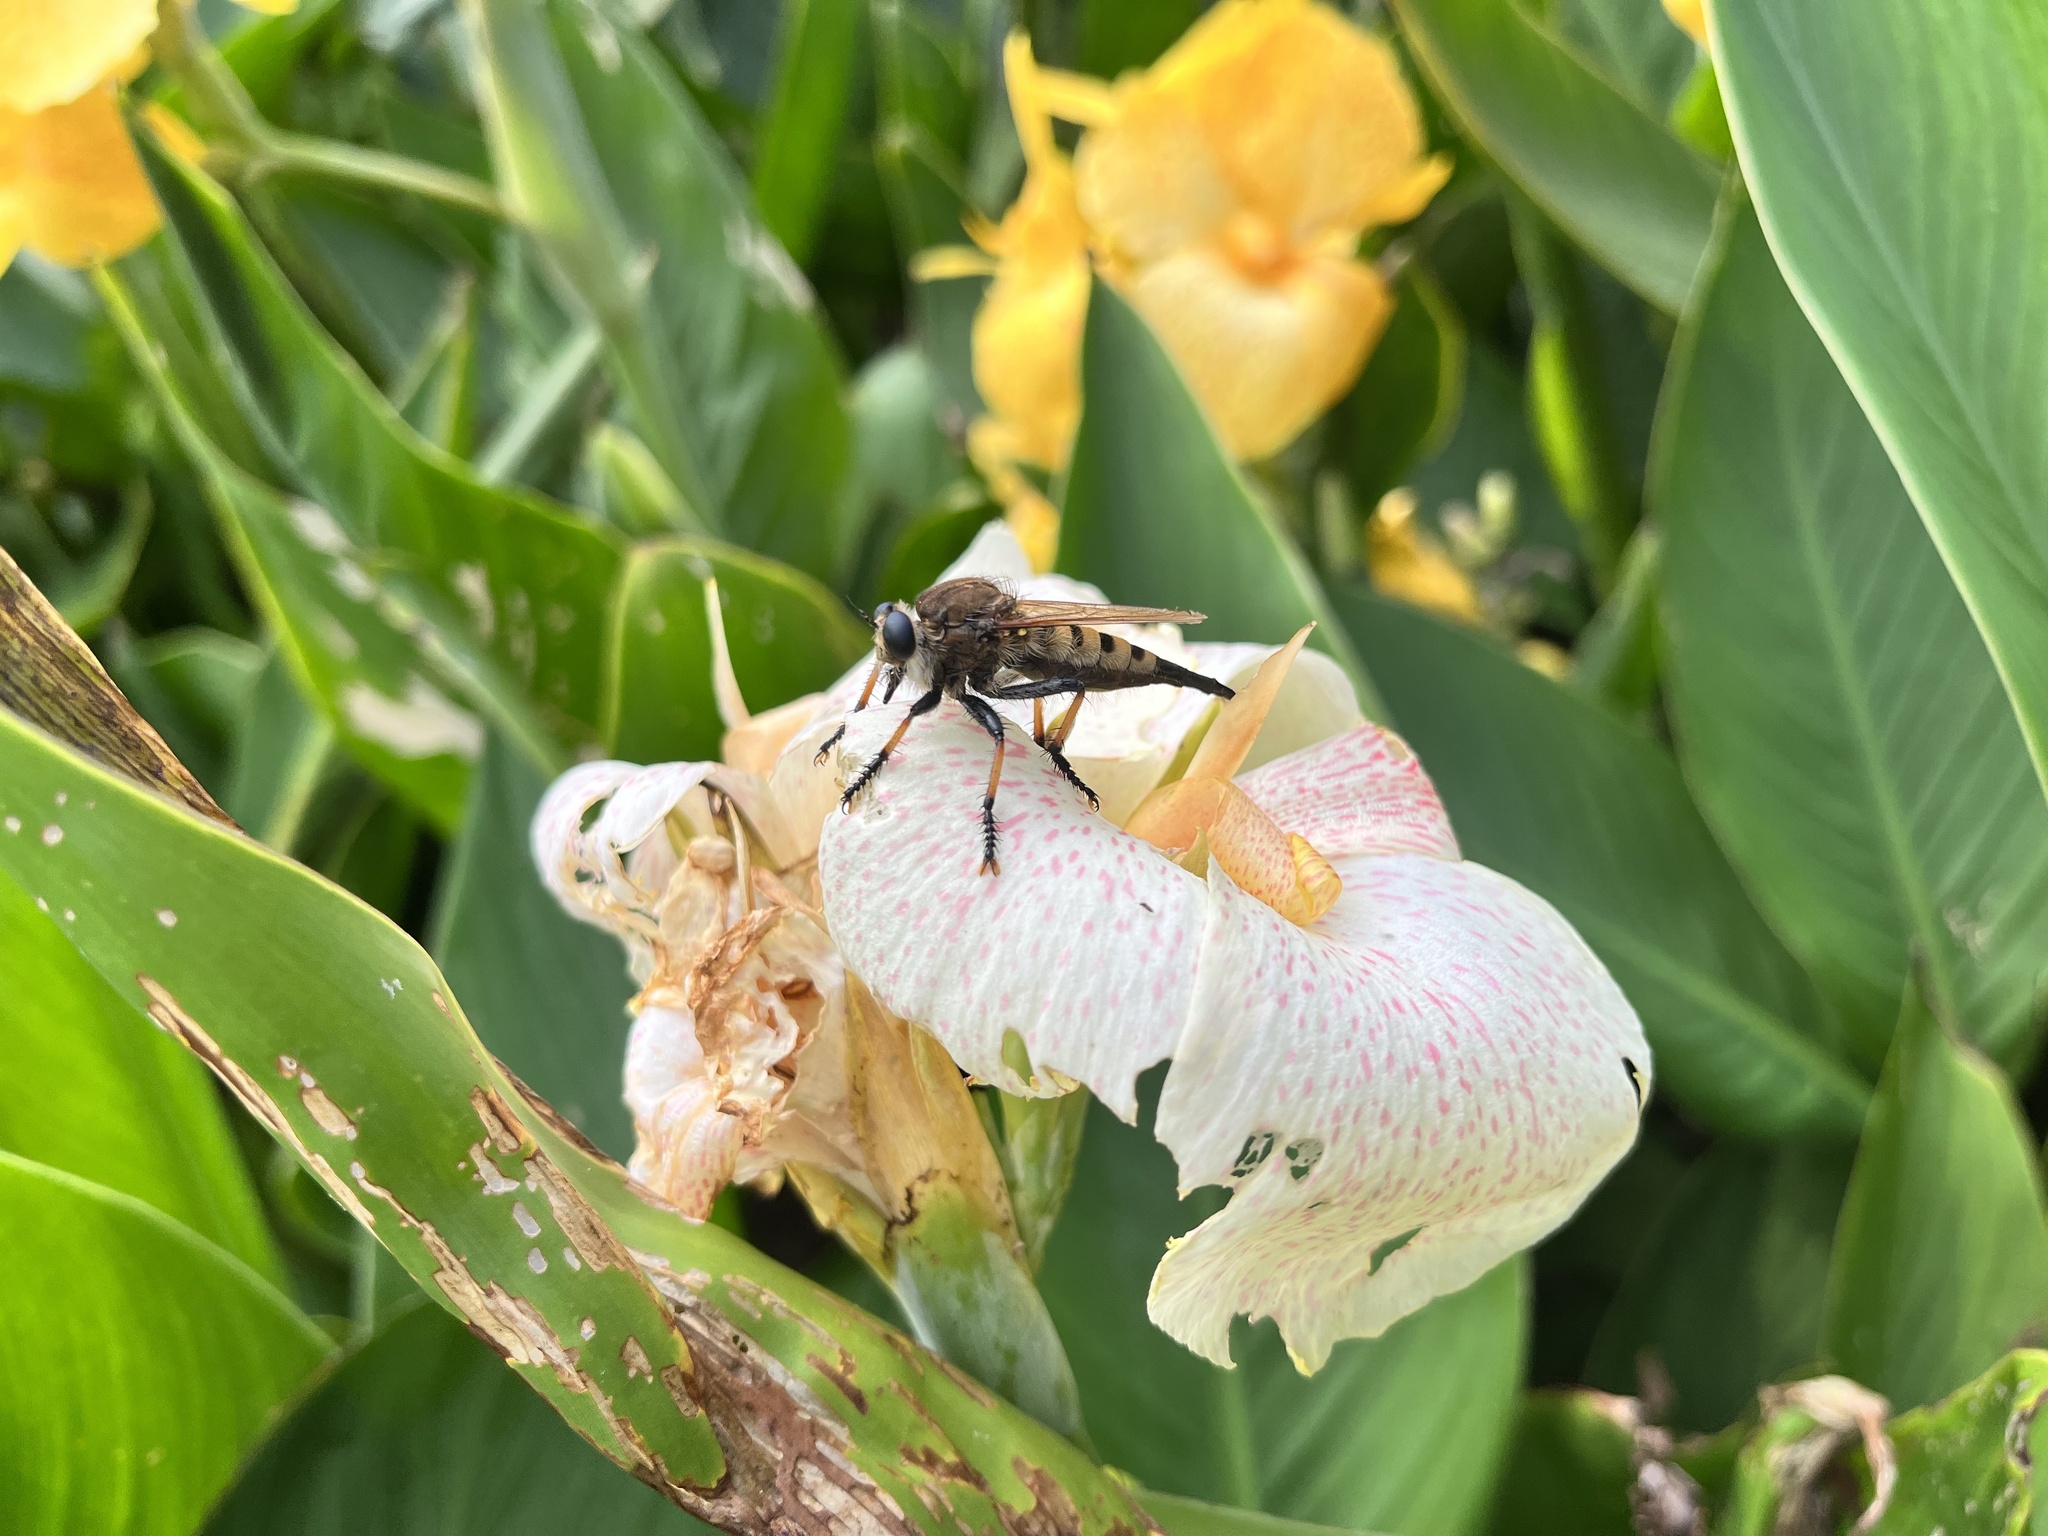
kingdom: Animalia
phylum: Arthropoda
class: Insecta
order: Diptera
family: Asilidae
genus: Promachus
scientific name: Promachus rufipes
